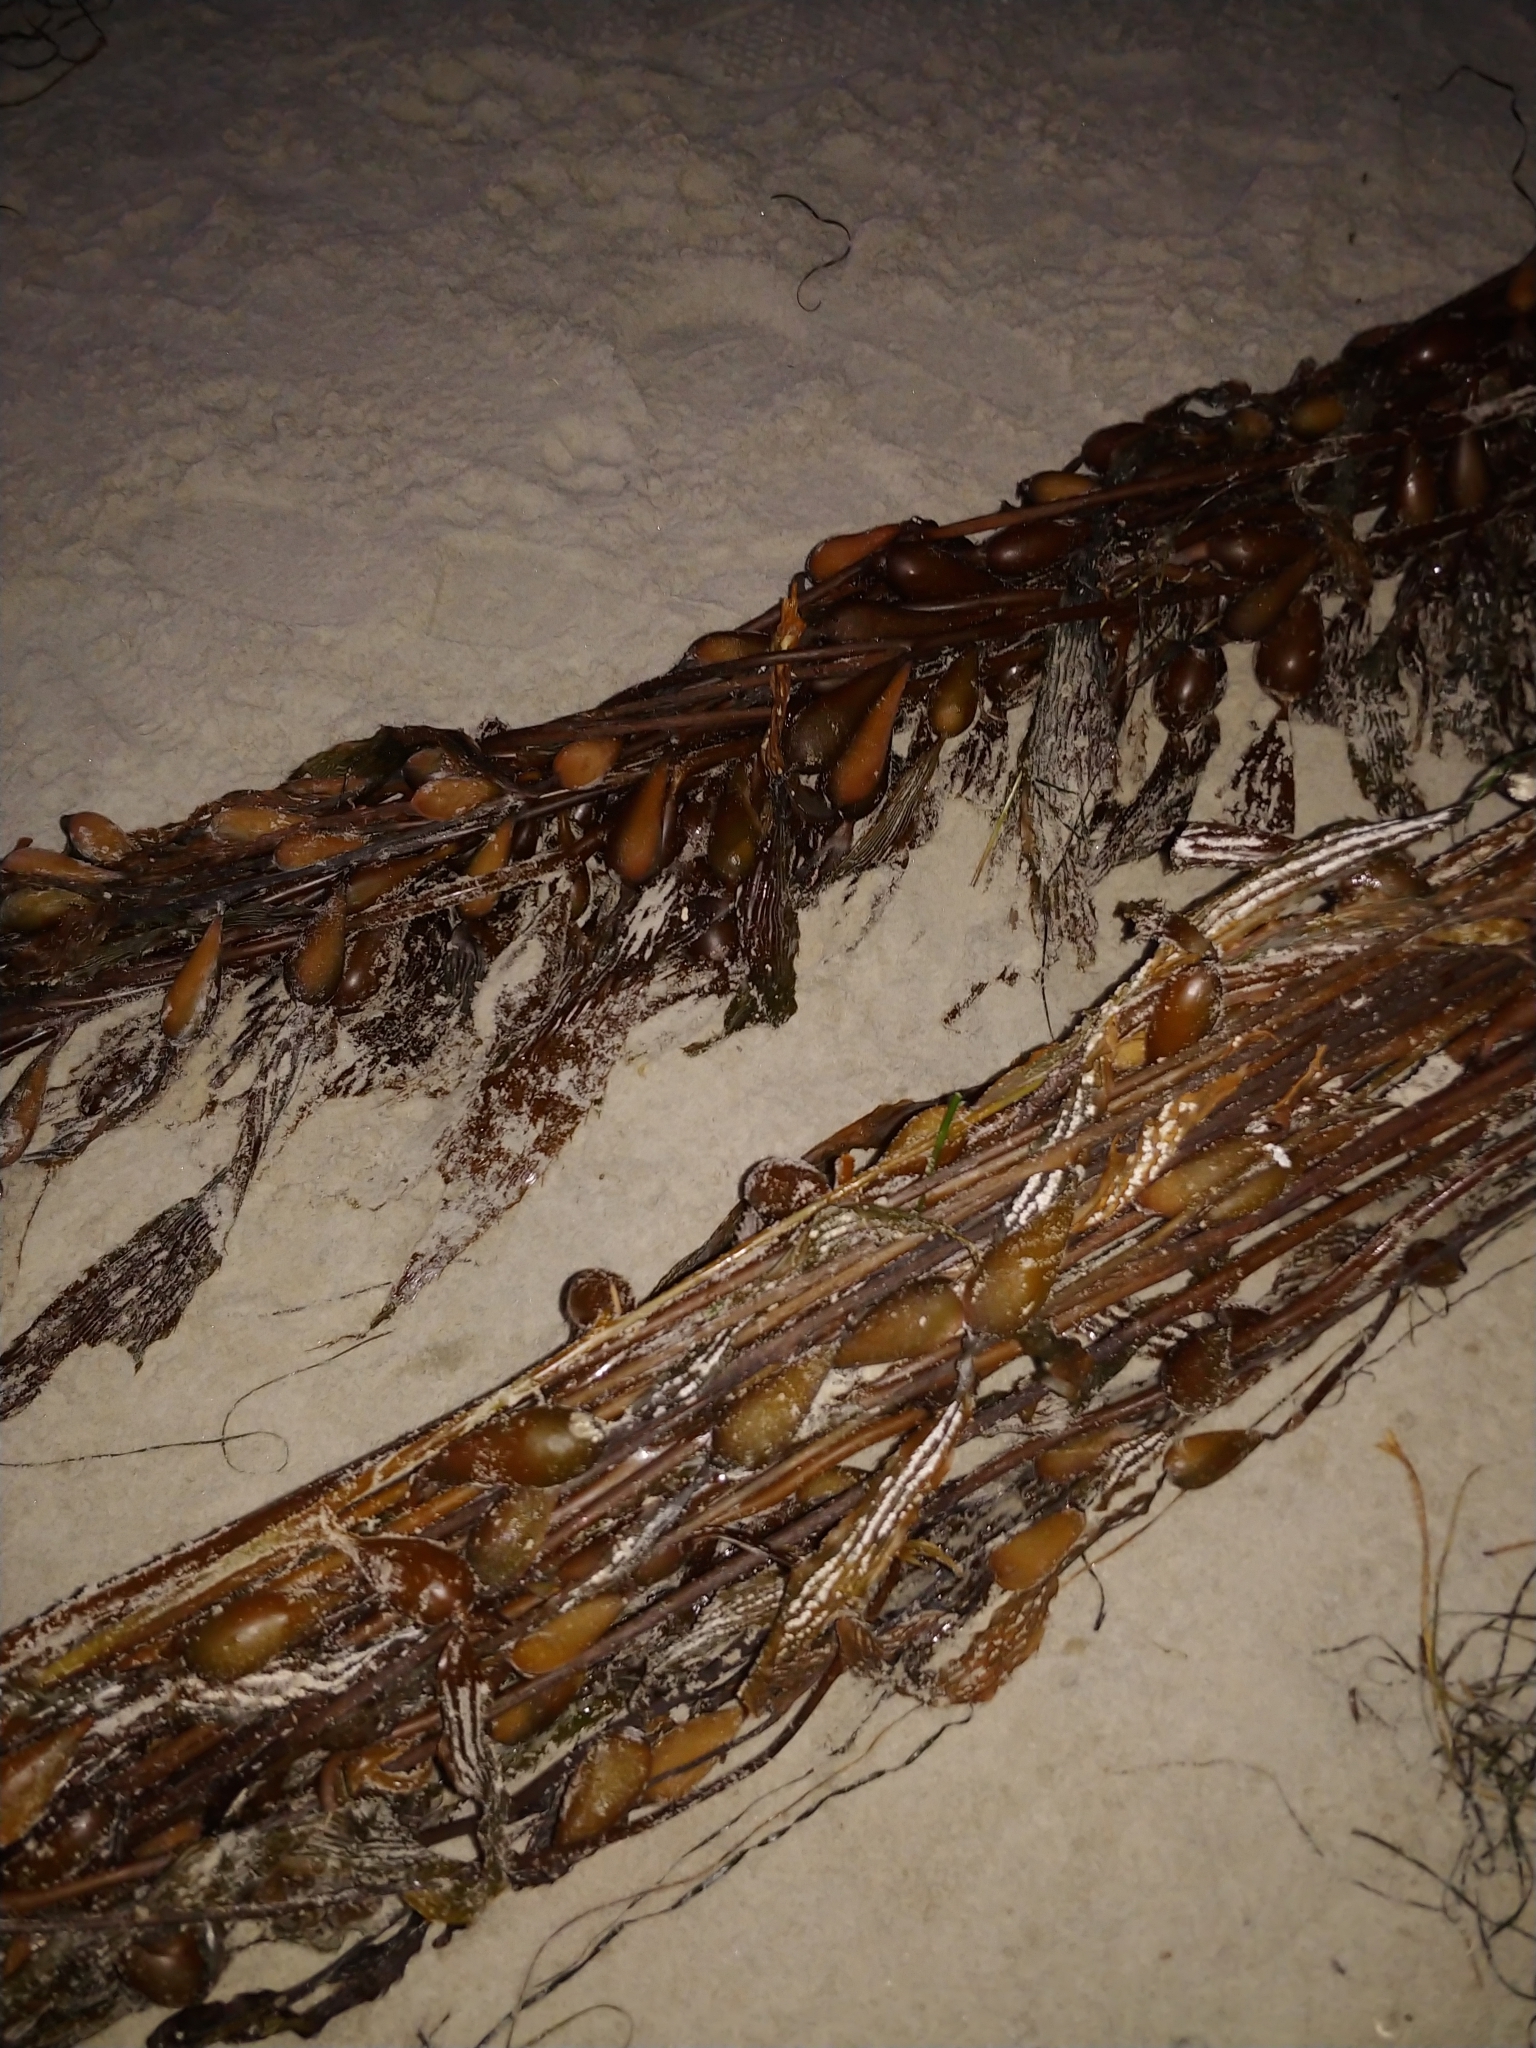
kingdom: Chromista
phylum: Ochrophyta
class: Phaeophyceae
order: Laminariales
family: Laminariaceae
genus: Macrocystis
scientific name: Macrocystis pyrifera
